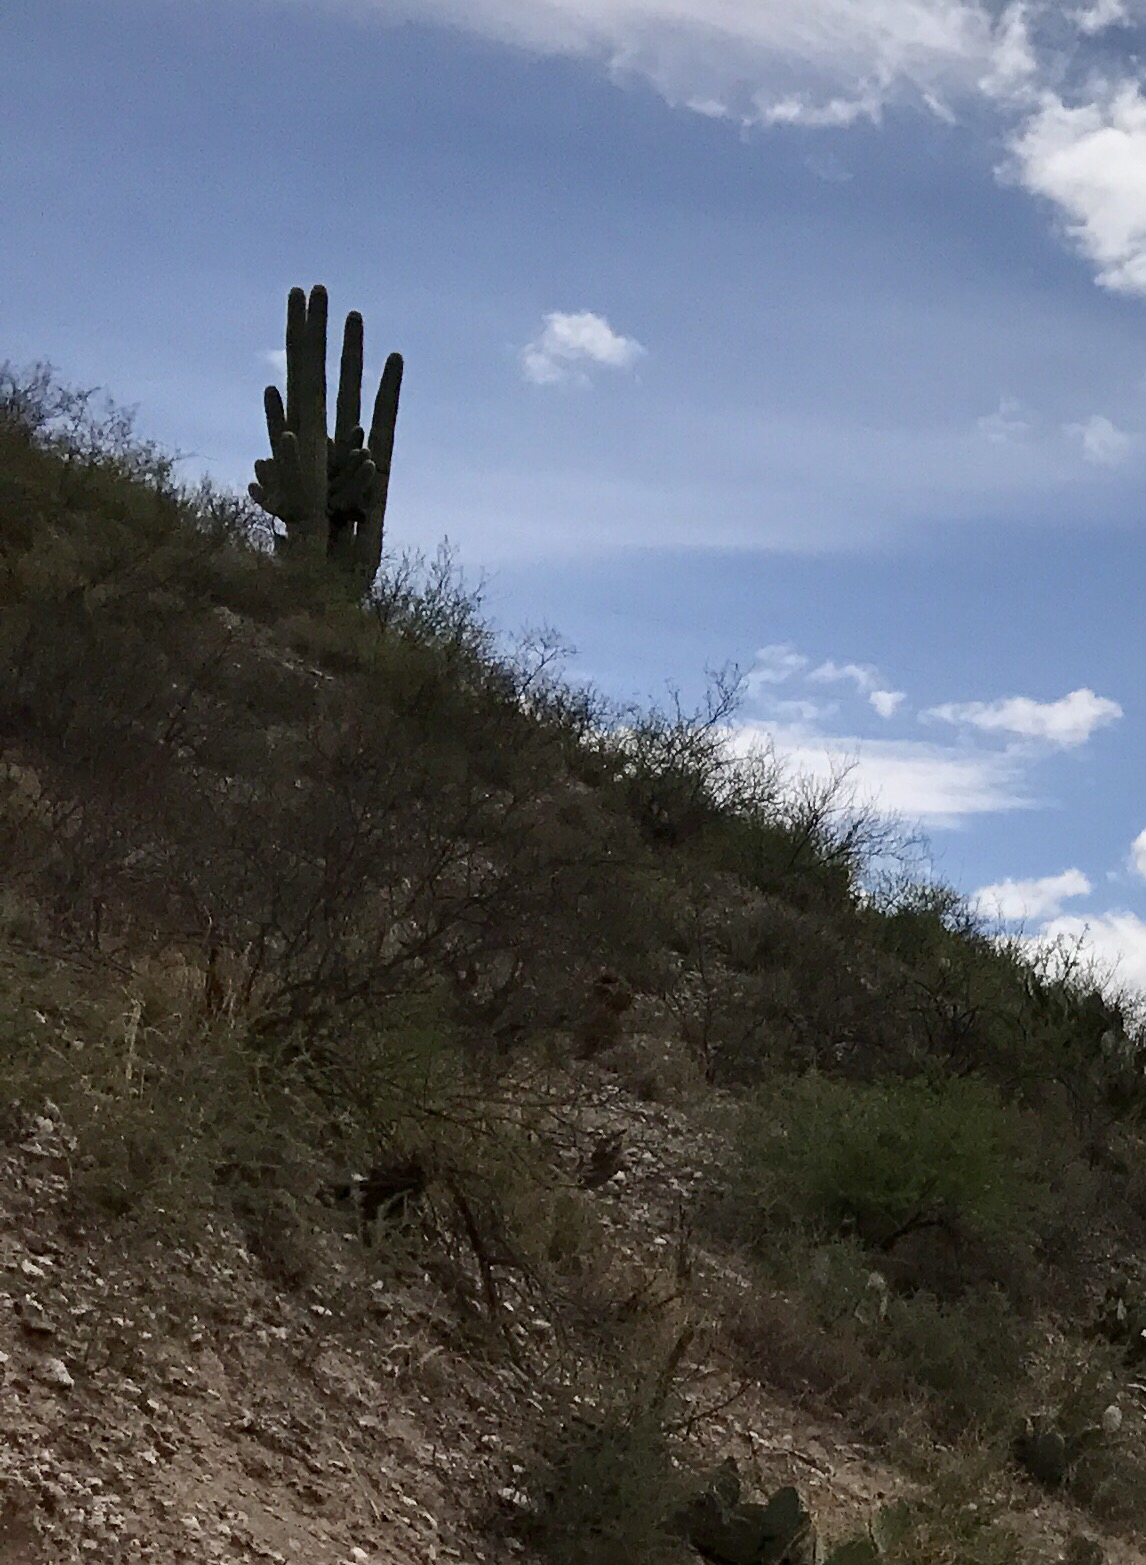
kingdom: Plantae
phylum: Tracheophyta
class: Magnoliopsida
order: Caryophyllales
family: Cactaceae
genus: Carnegiea
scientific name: Carnegiea gigantea
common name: Saguaro
